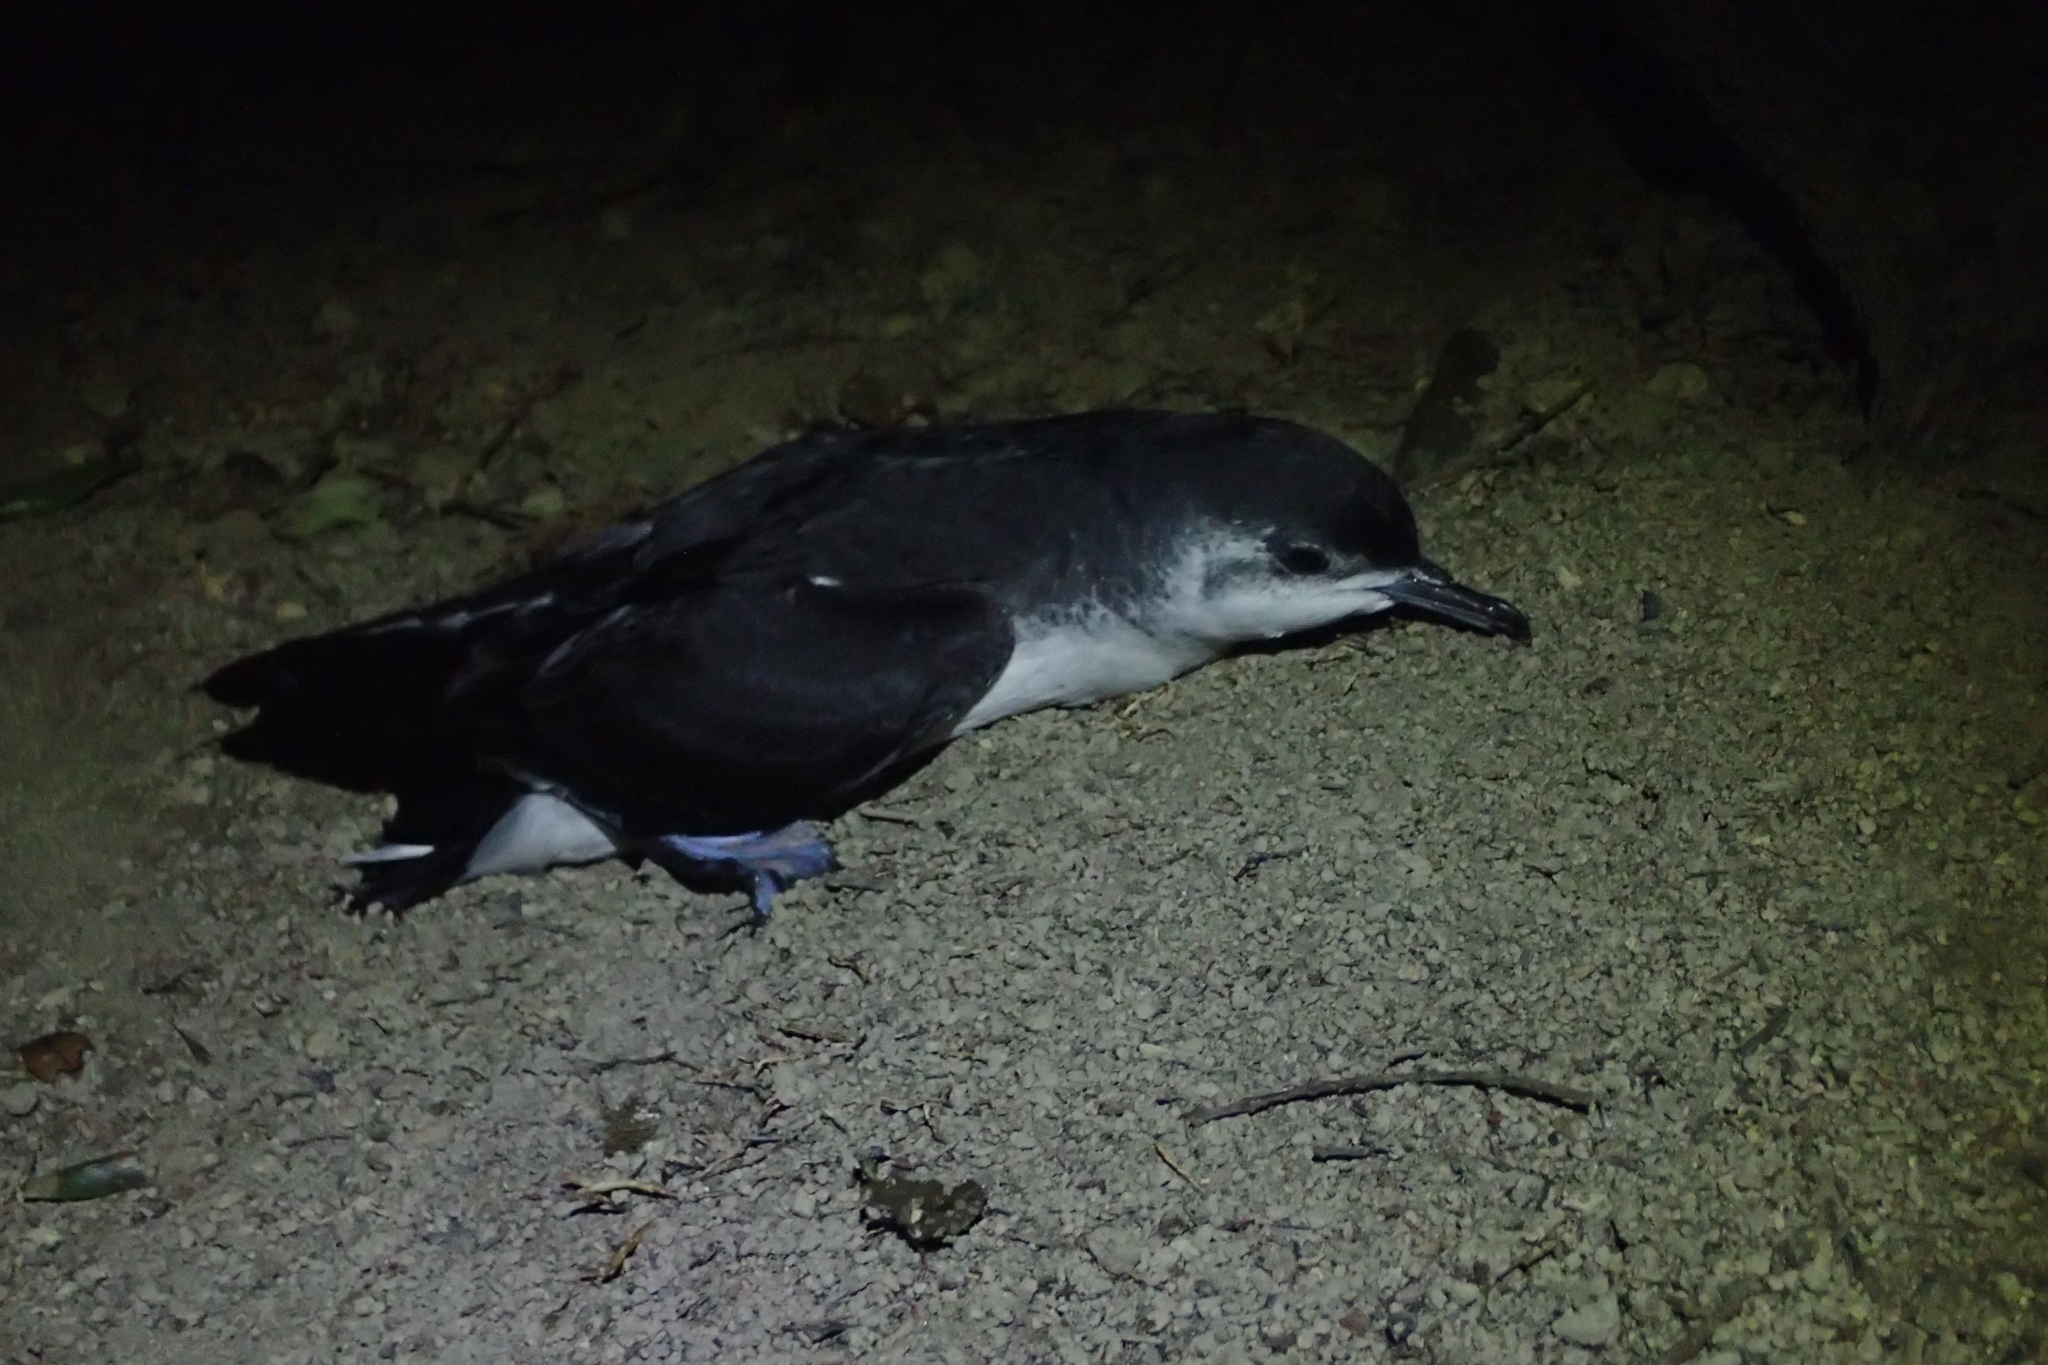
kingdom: Animalia
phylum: Chordata
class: Aves
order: Procellariiformes
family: Procellariidae
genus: Puffinus
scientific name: Puffinus assimilis
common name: Little shearwater
